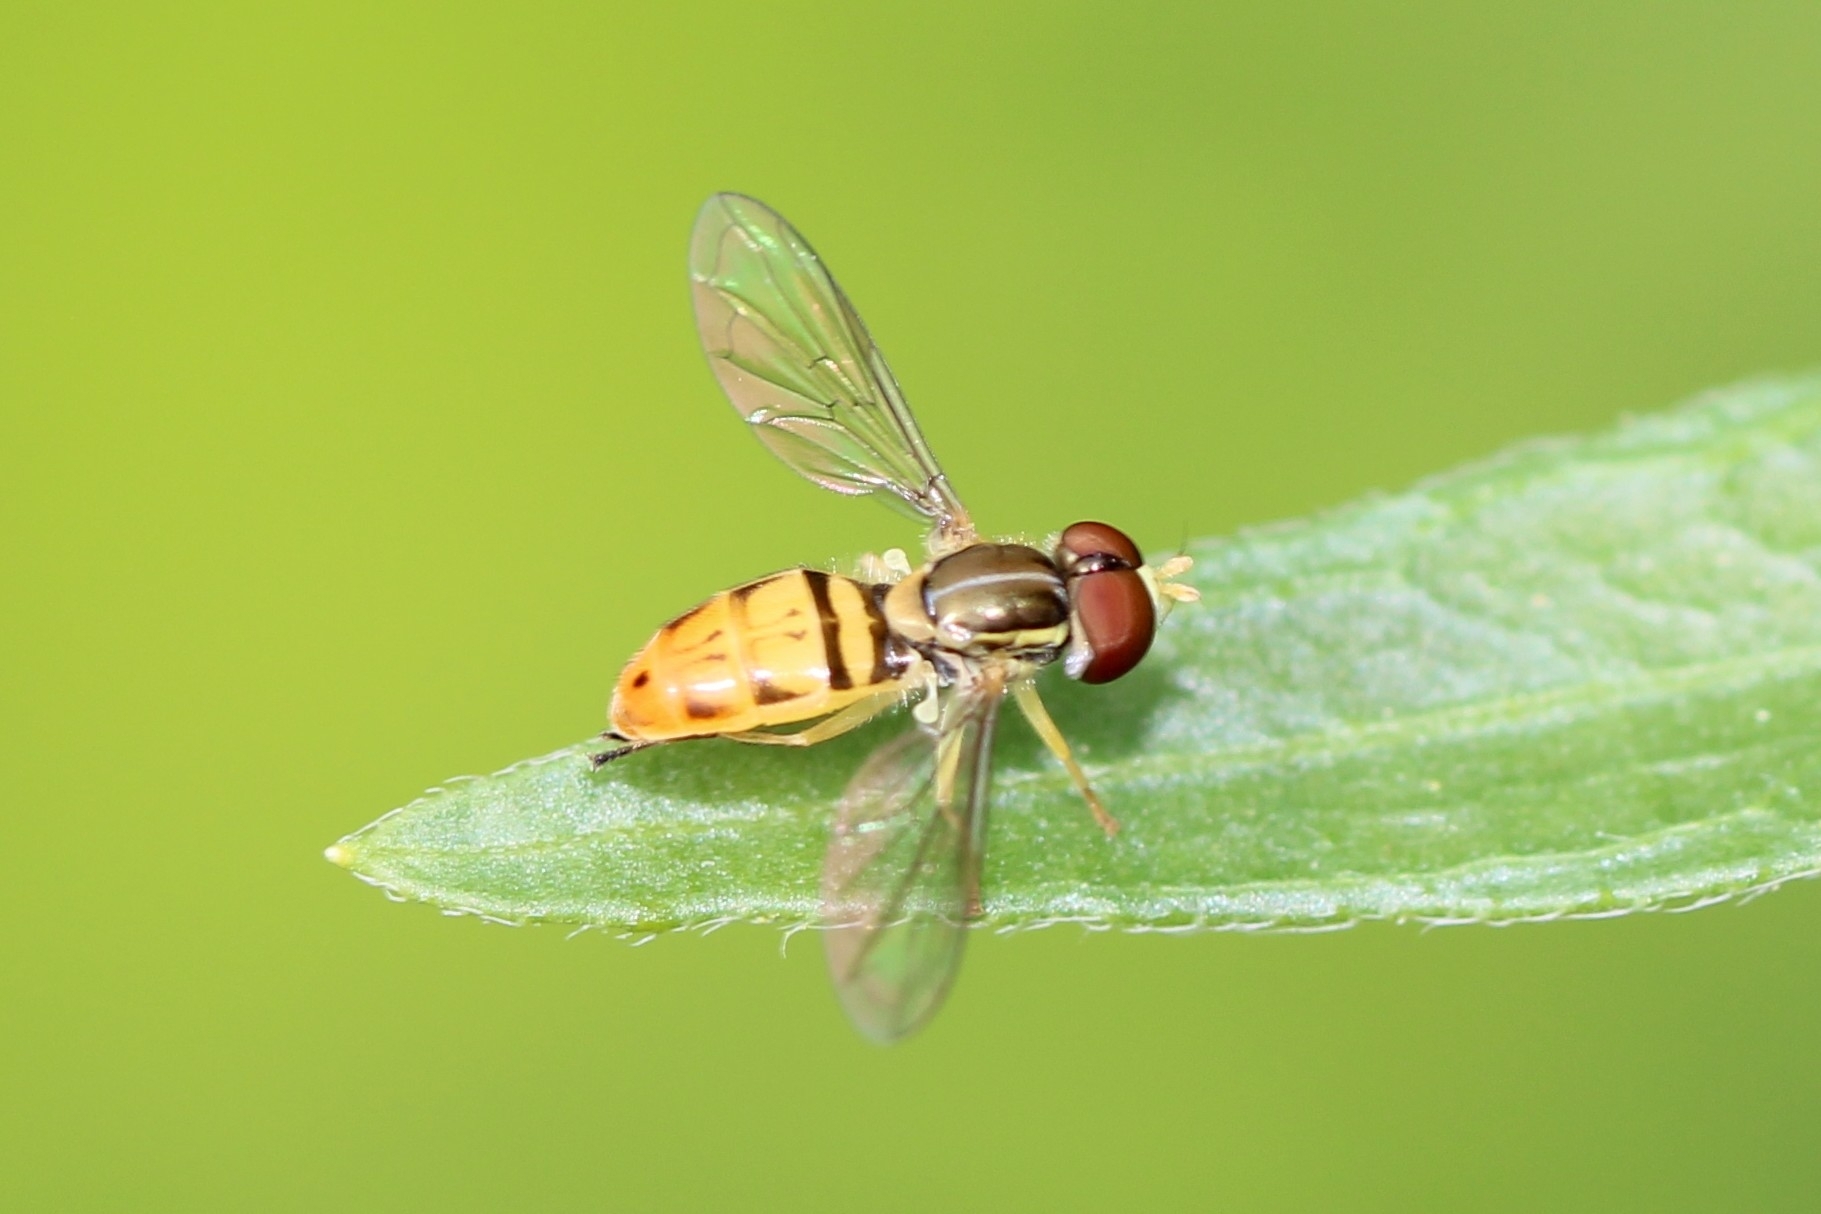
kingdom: Animalia
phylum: Arthropoda
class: Insecta
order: Diptera
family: Syrphidae
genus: Toxomerus
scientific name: Toxomerus marginatus
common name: Syrphid fly
